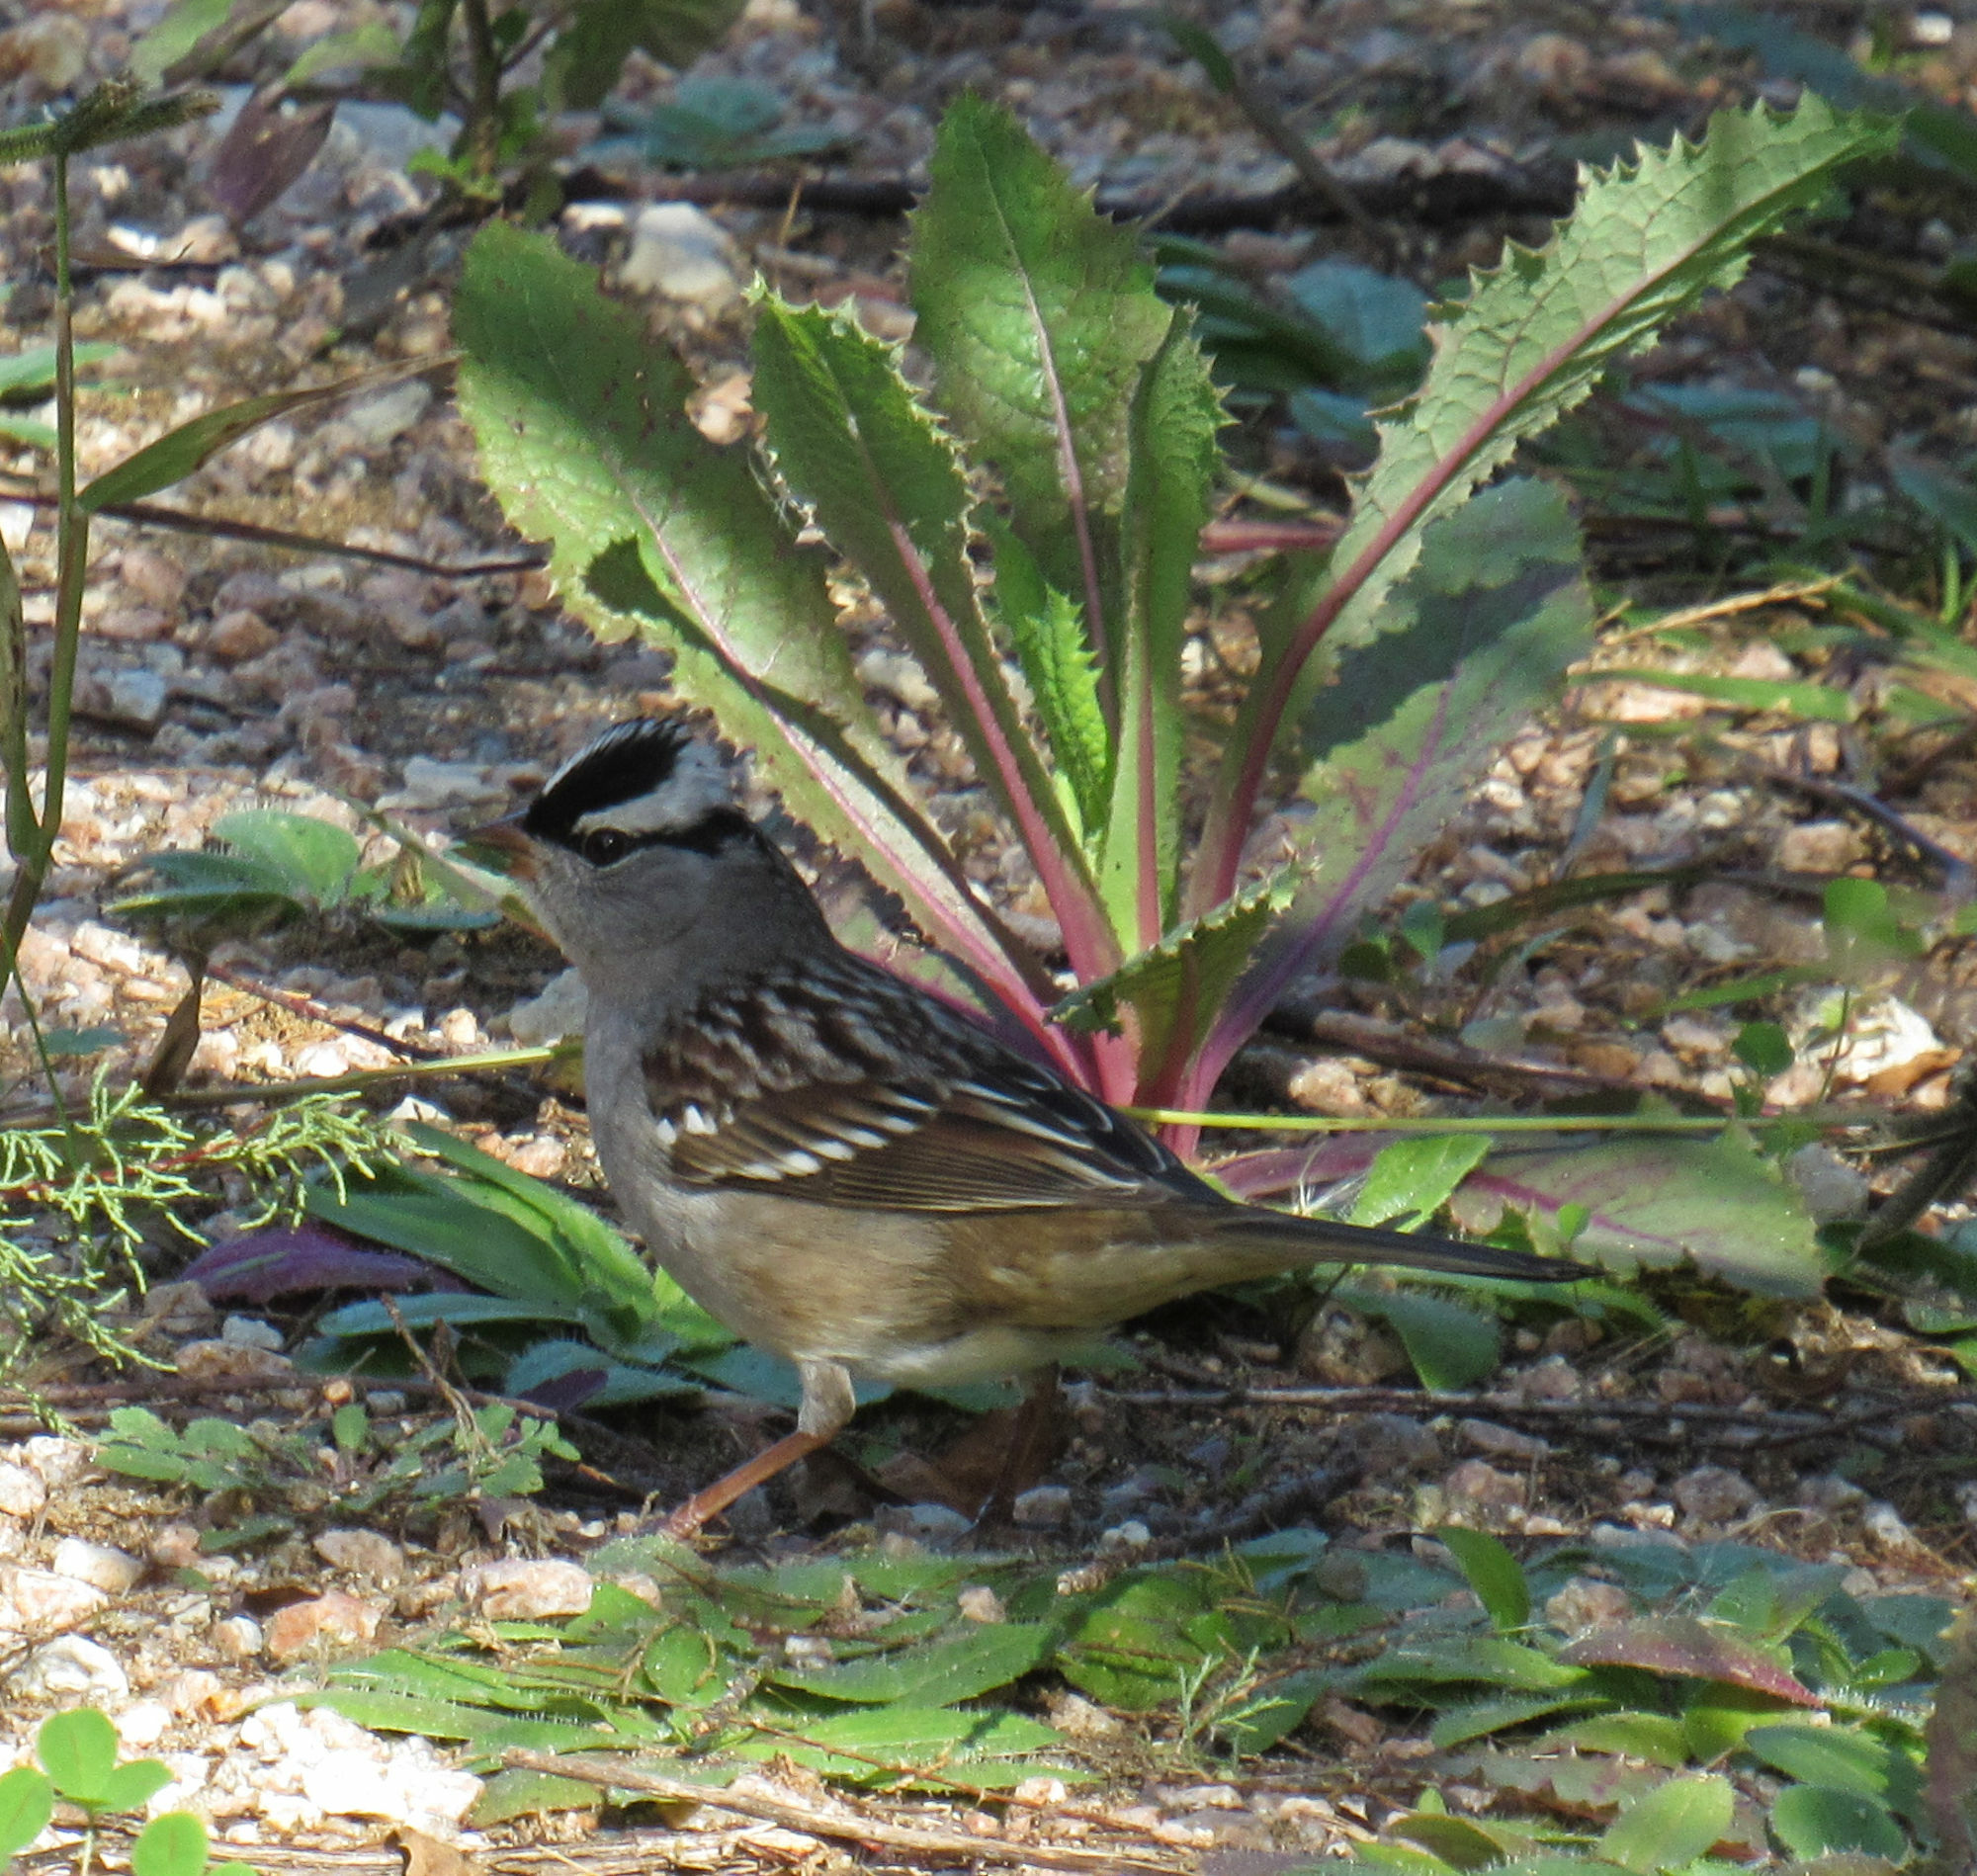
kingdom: Animalia
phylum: Chordata
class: Aves
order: Passeriformes
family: Passerellidae
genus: Zonotrichia
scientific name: Zonotrichia leucophrys
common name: White-crowned sparrow
